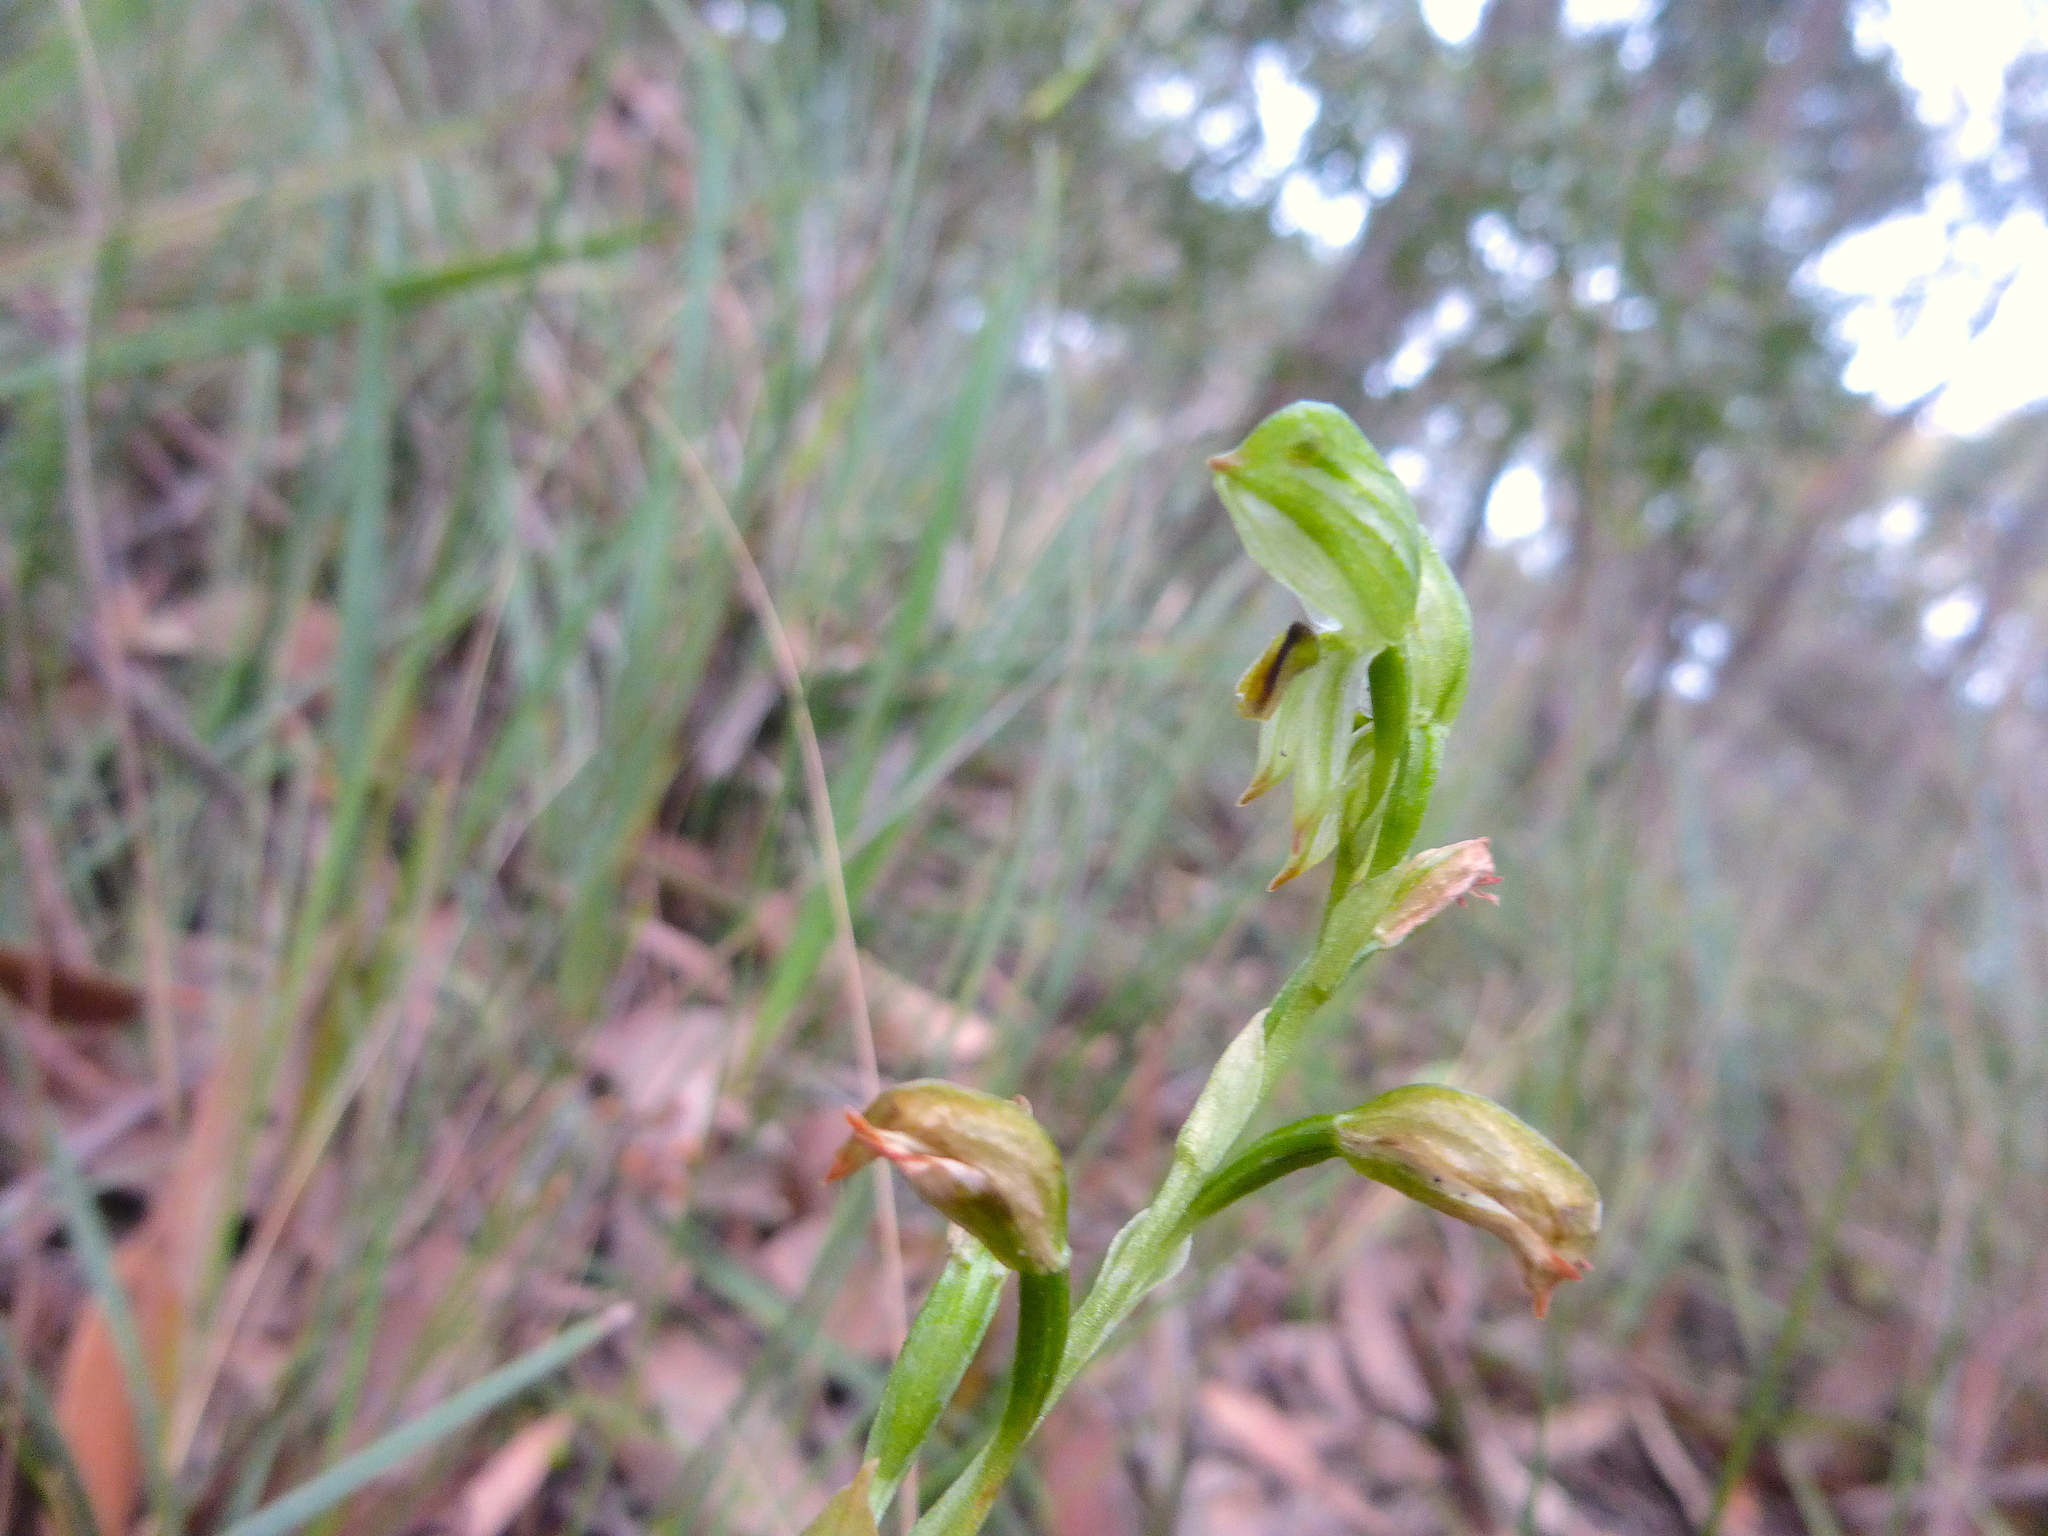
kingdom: Plantae
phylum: Tracheophyta
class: Liliopsida
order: Asparagales
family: Orchidaceae
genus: Pterostylis
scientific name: Pterostylis melagramma
